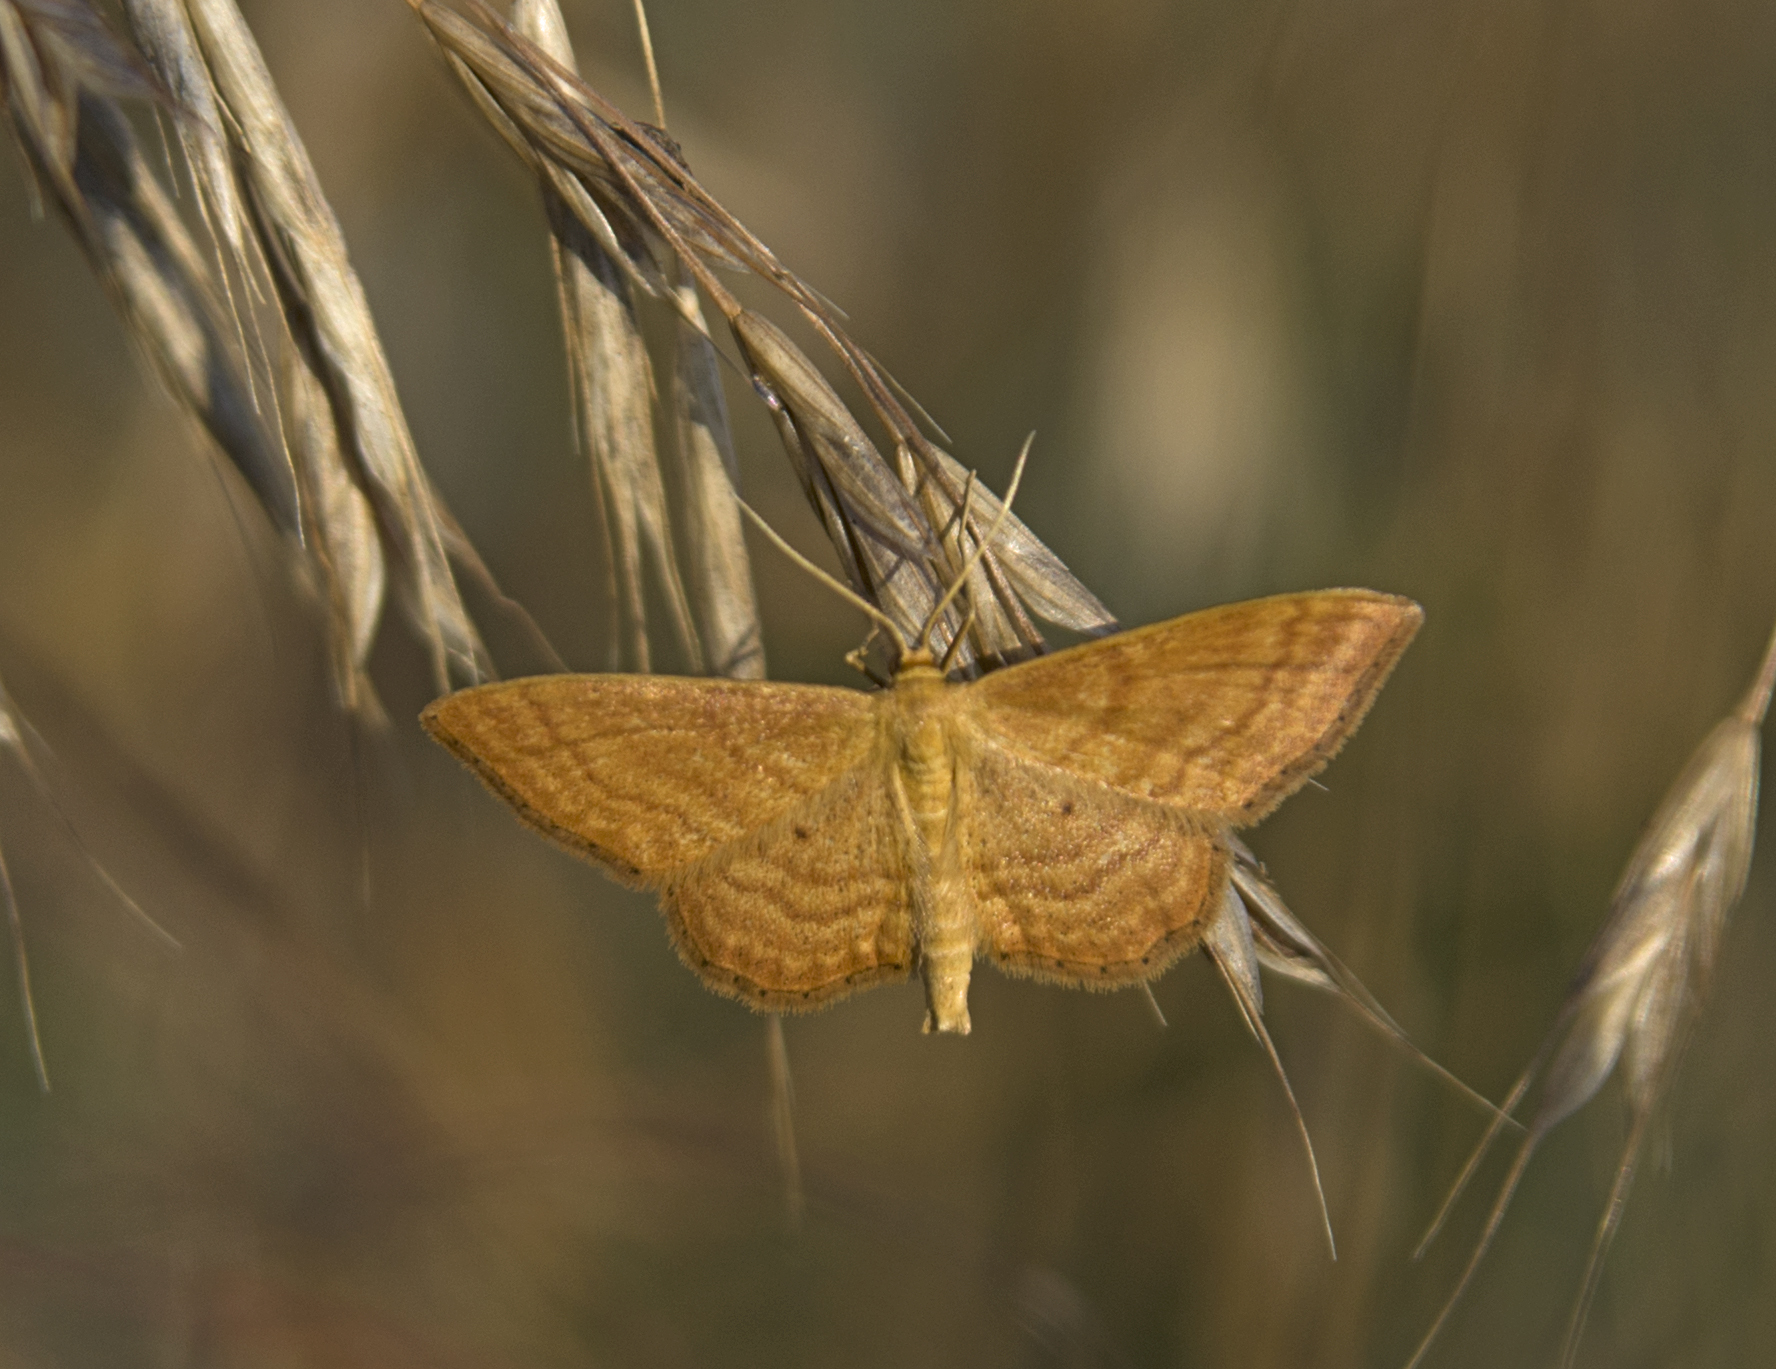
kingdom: Animalia
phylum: Arthropoda
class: Insecta
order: Lepidoptera
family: Geometridae
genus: Idaea
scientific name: Idaea ochrata
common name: Bright wave
